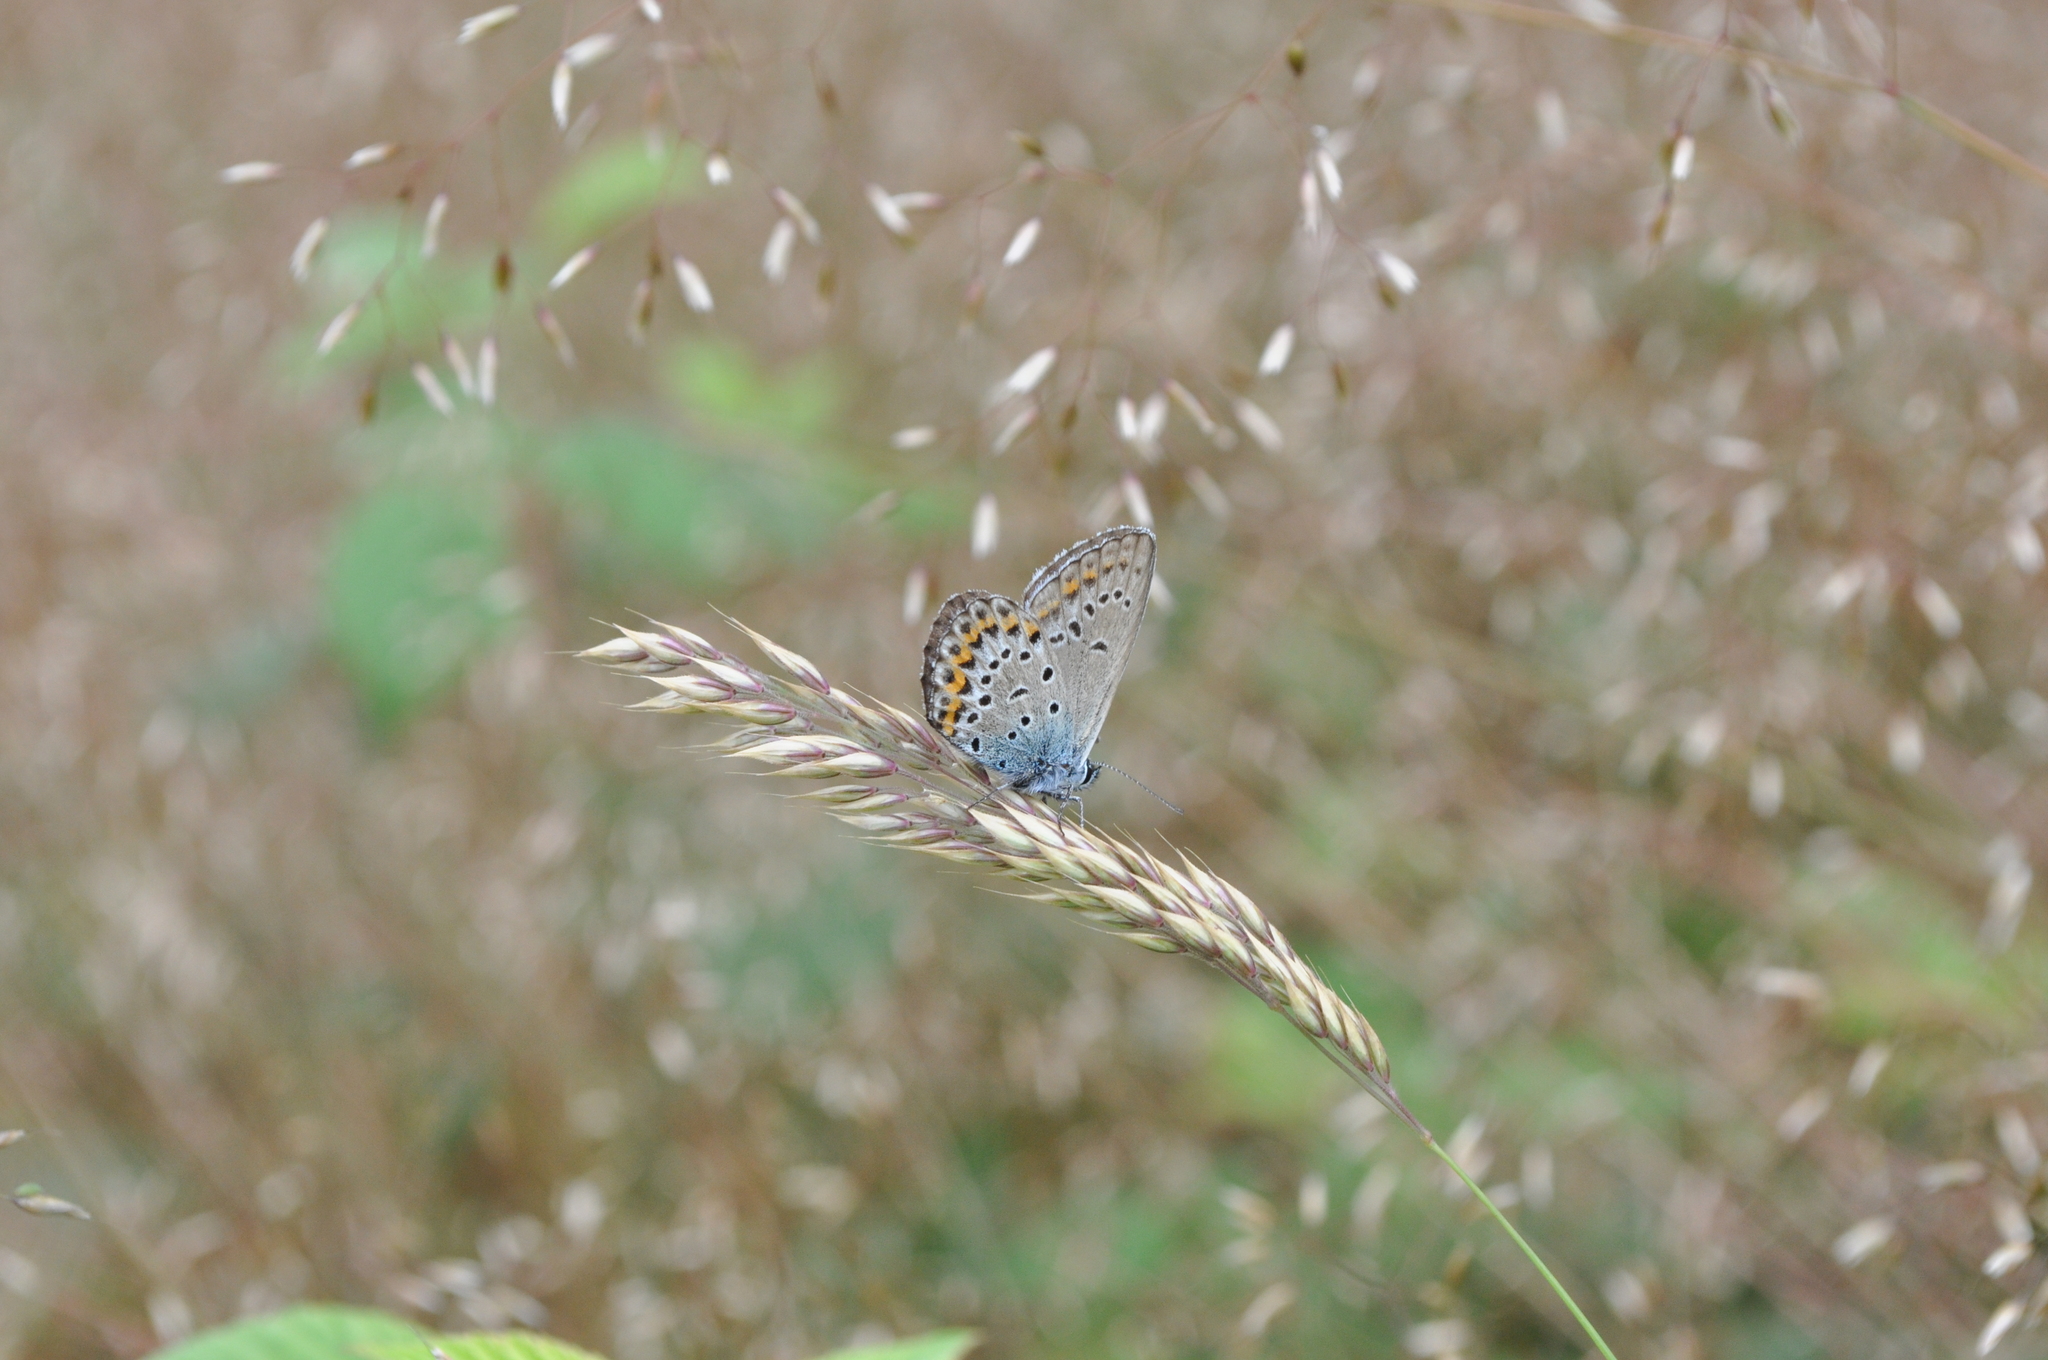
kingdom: Animalia
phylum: Arthropoda
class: Insecta
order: Lepidoptera
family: Lycaenidae
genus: Lycaeides
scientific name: Lycaeides idas
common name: Northern blue
